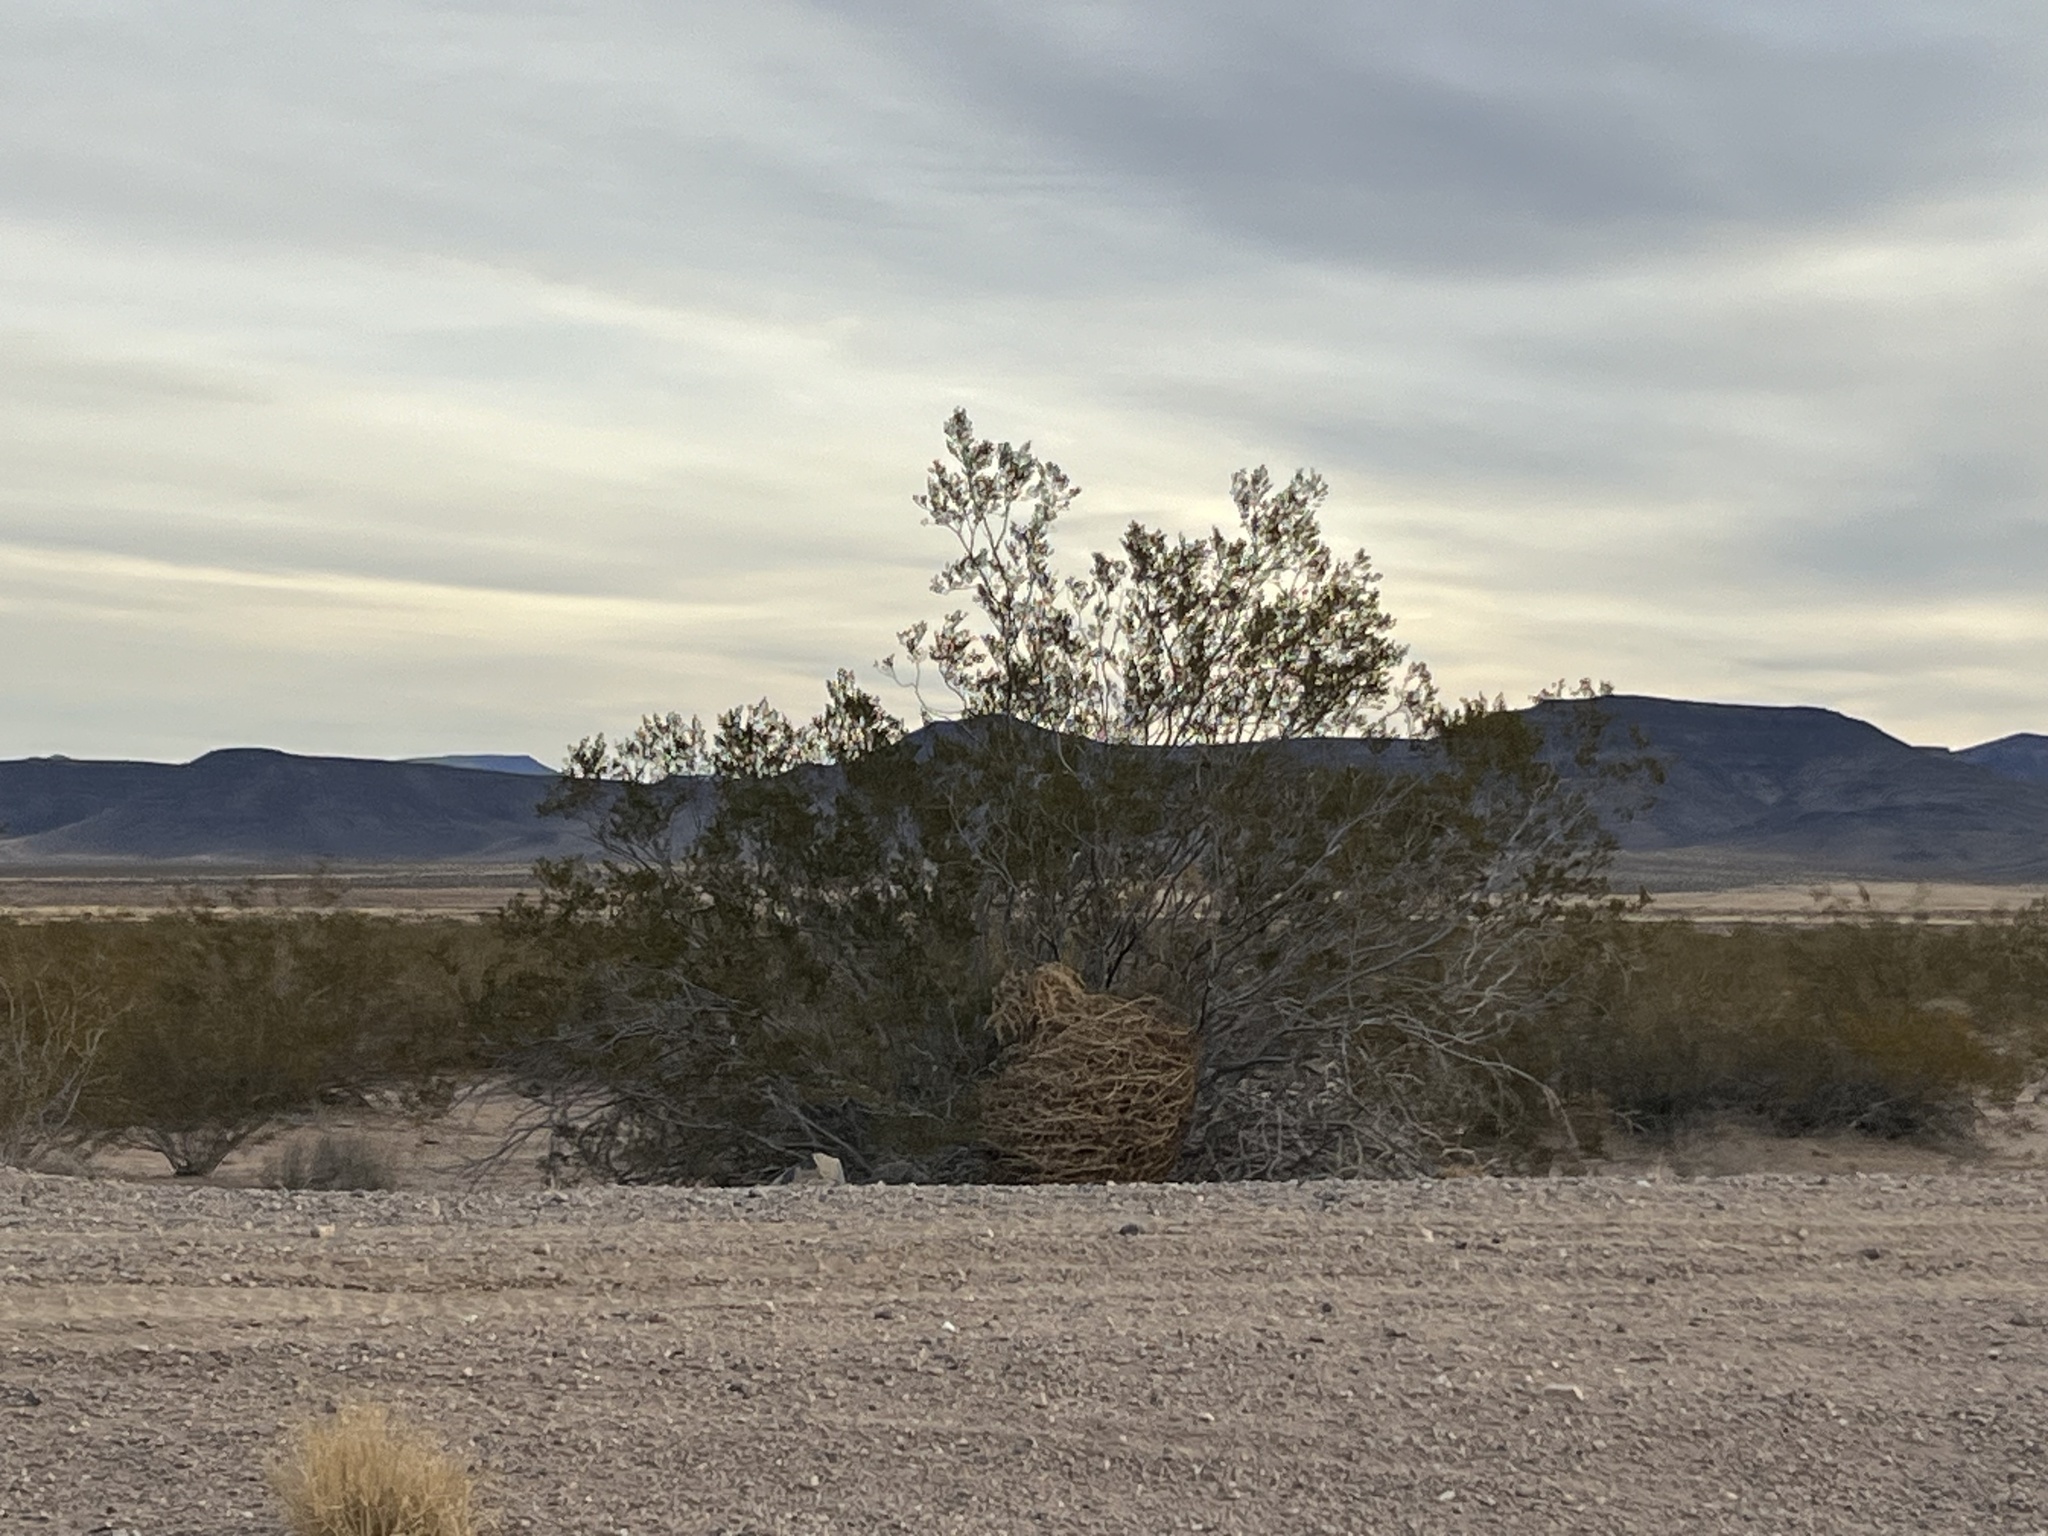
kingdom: Plantae
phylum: Tracheophyta
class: Magnoliopsida
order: Zygophyllales
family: Zygophyllaceae
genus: Larrea
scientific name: Larrea tridentata
